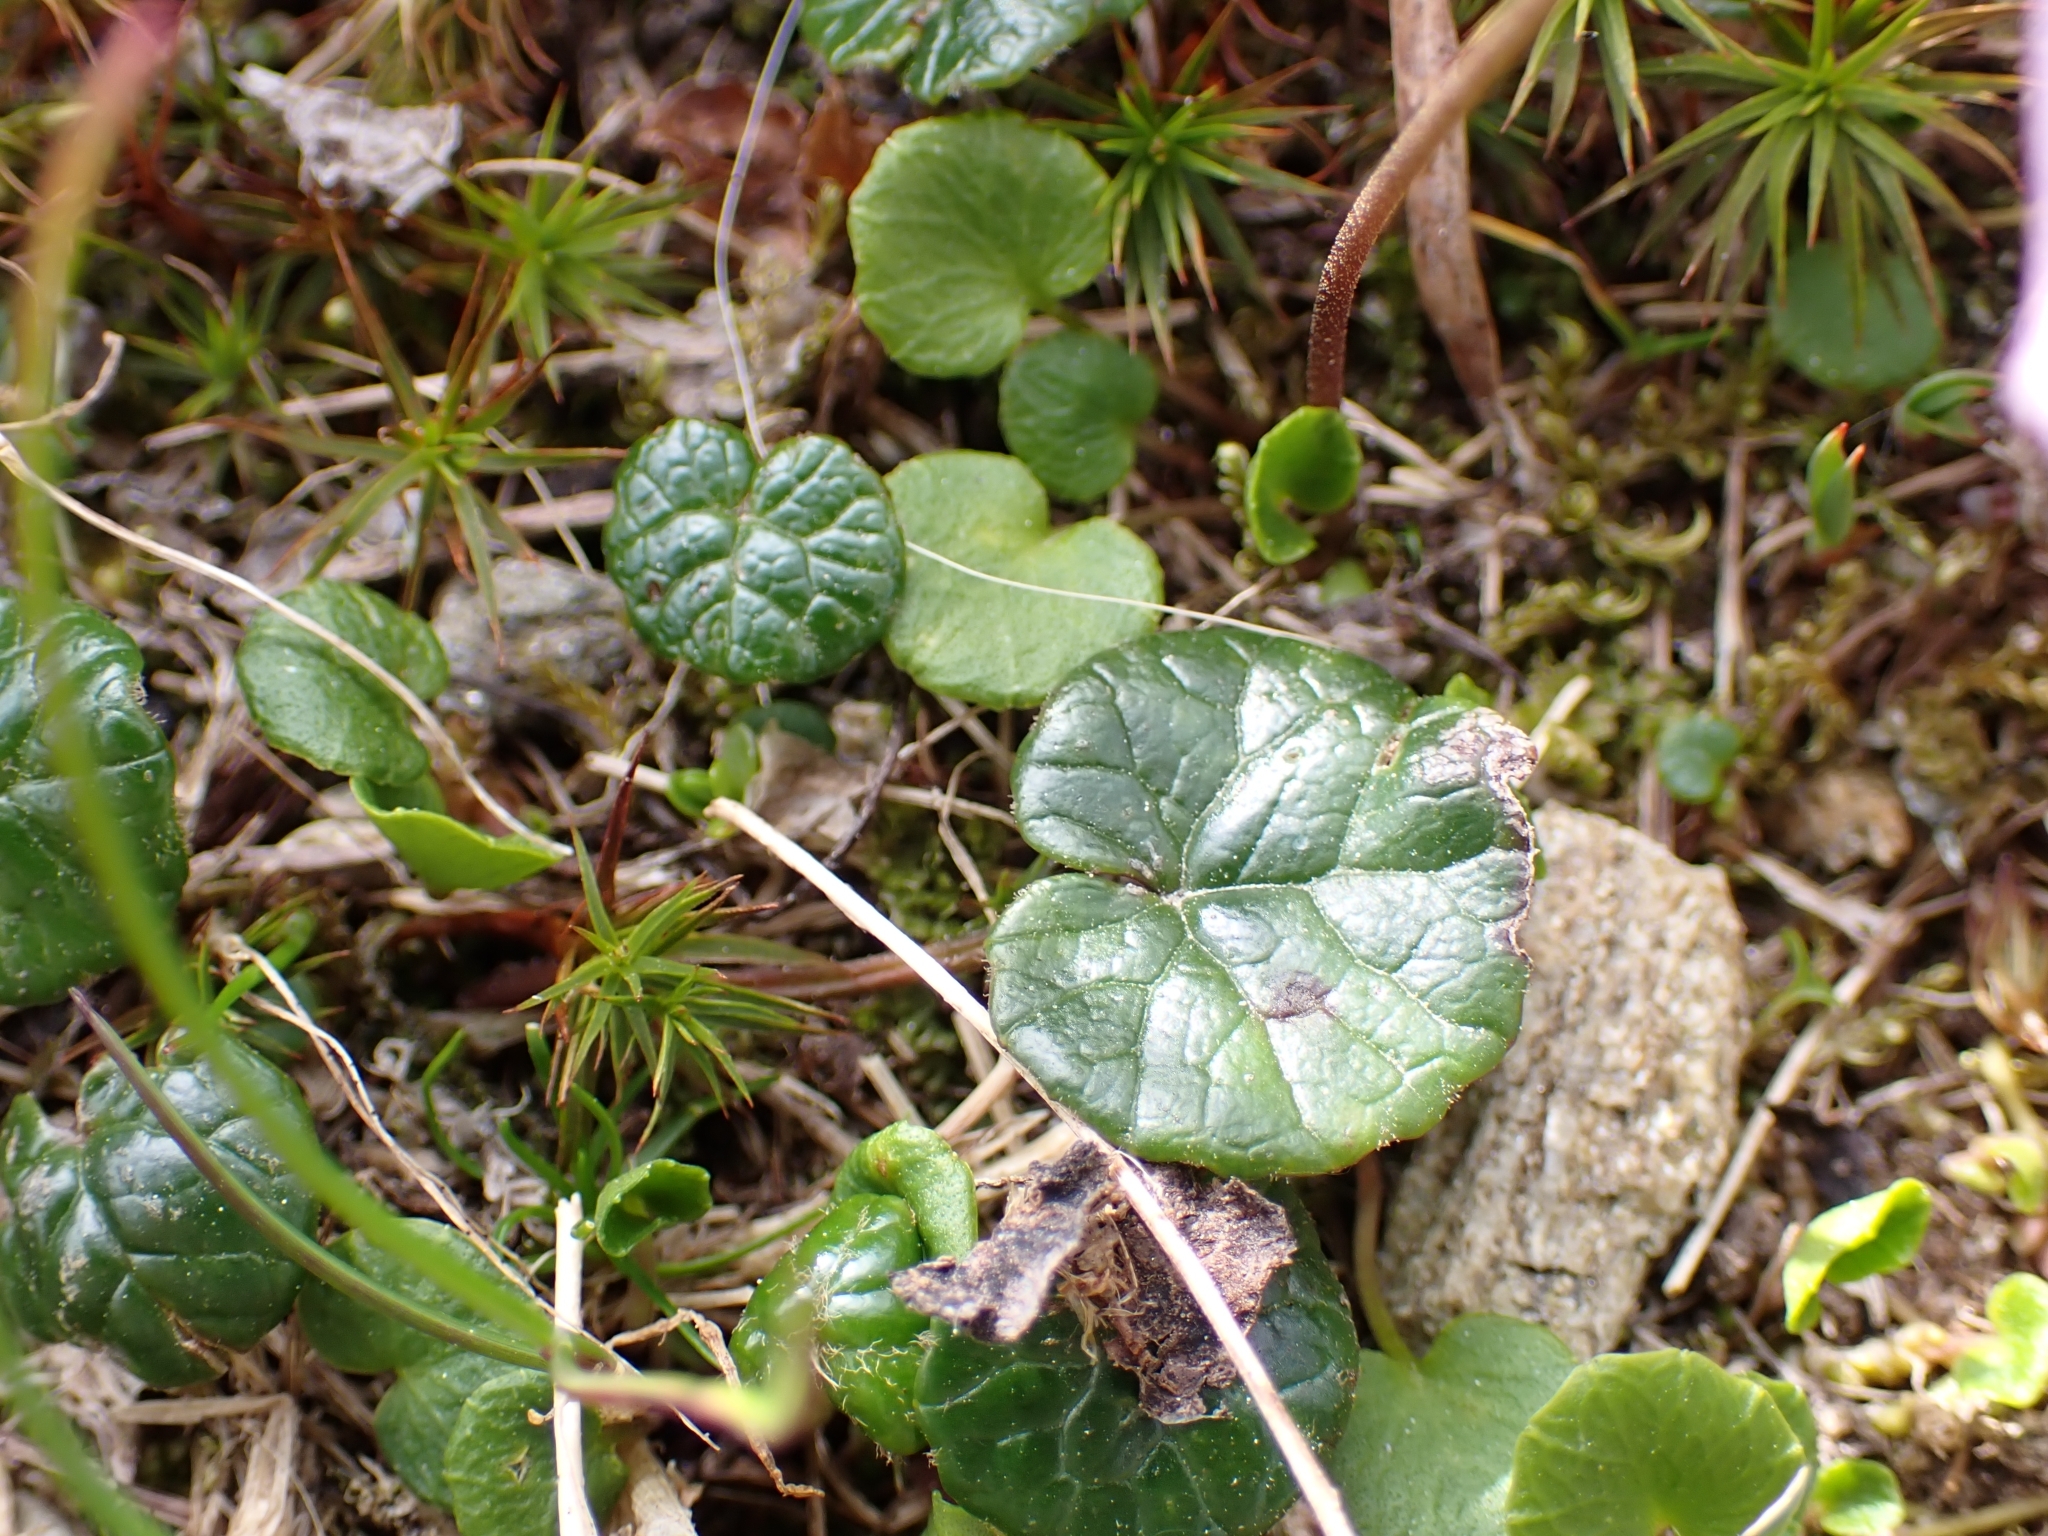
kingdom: Plantae
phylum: Tracheophyta
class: Magnoliopsida
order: Ericales
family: Primulaceae
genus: Soldanella
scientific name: Soldanella pusilla
